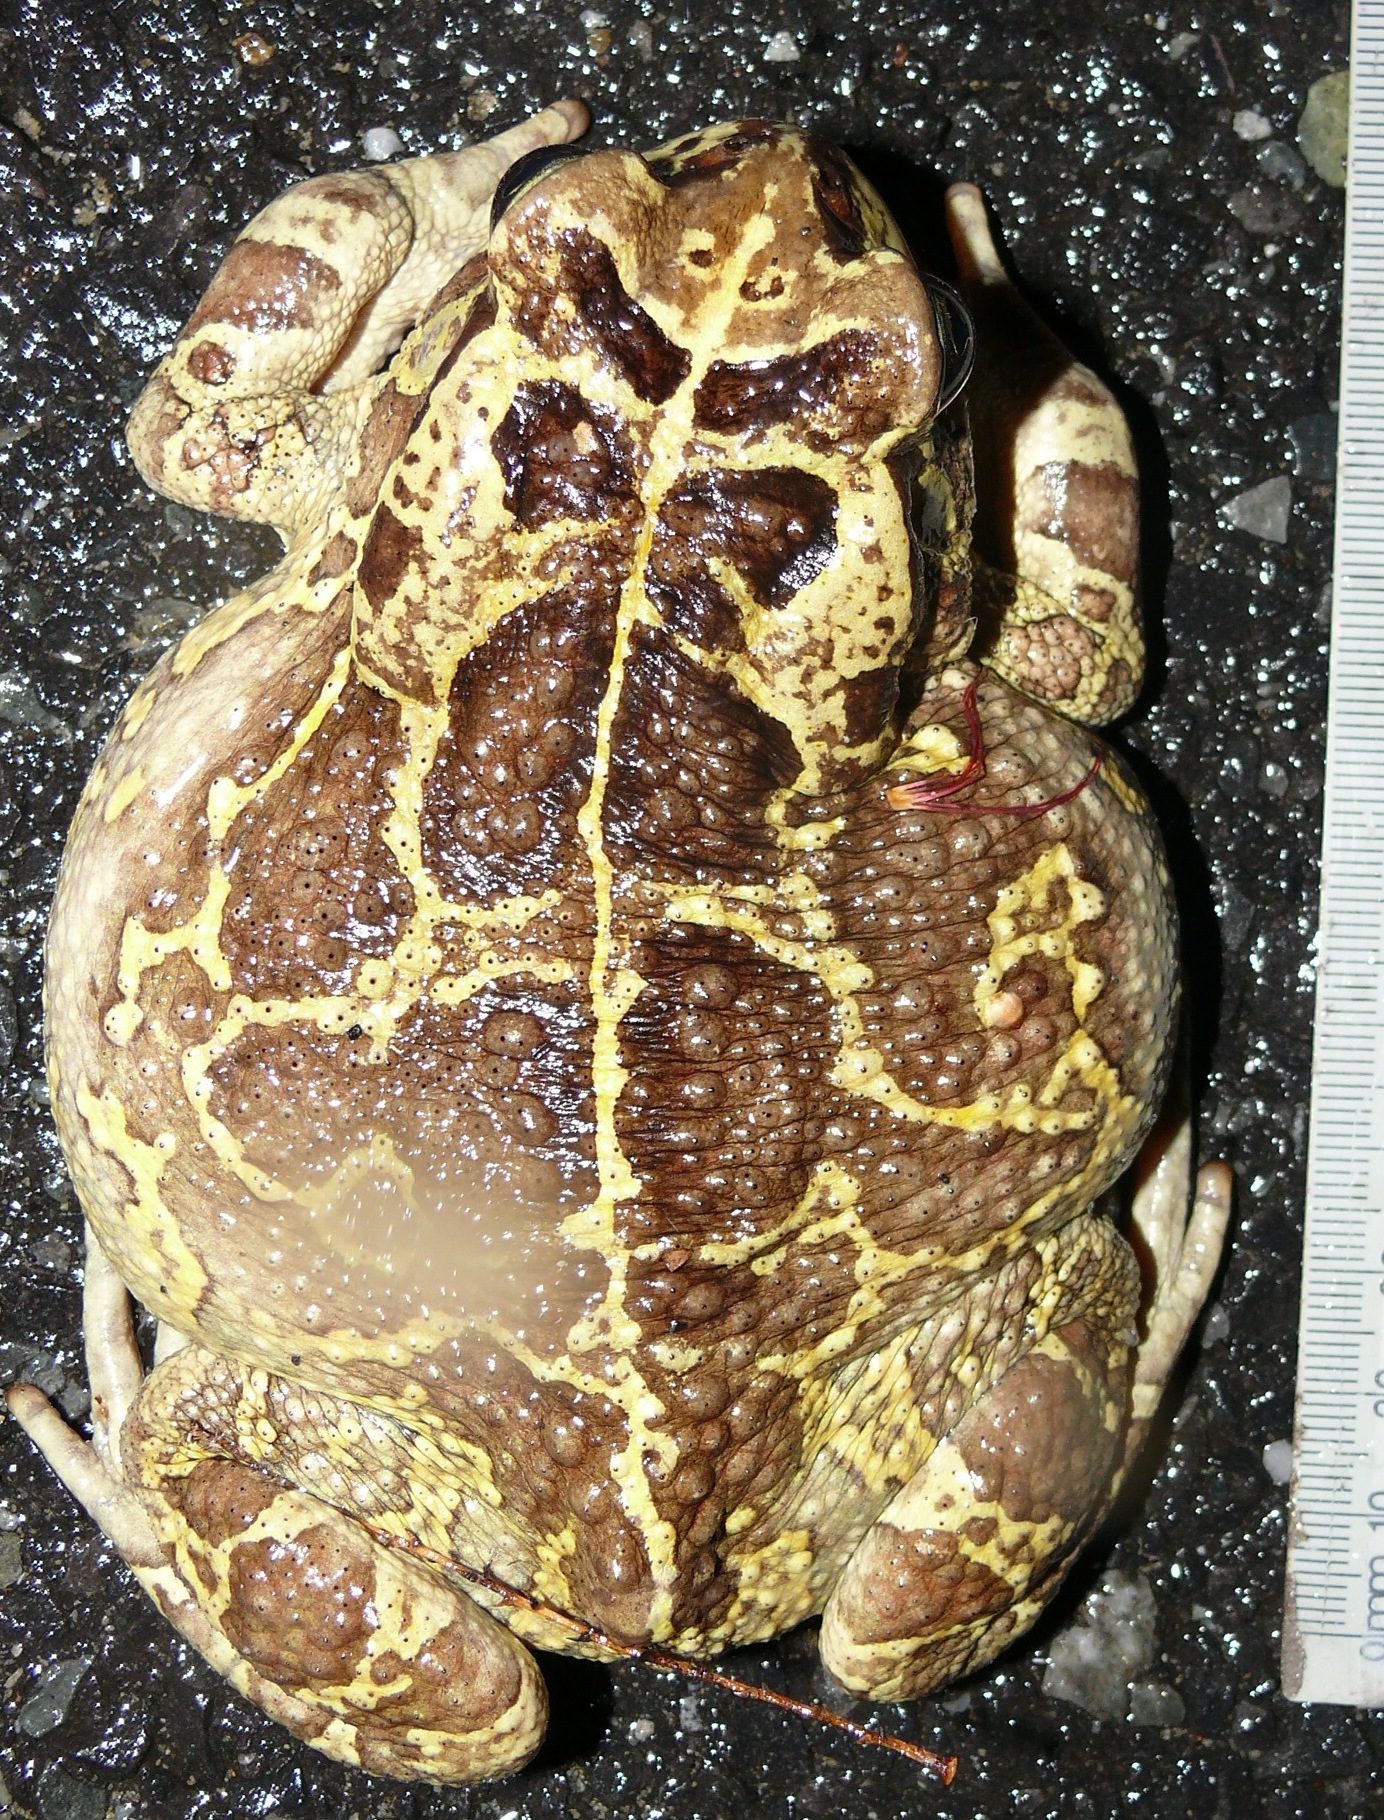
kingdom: Animalia
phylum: Chordata
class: Amphibia
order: Anura
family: Bufonidae
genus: Sclerophrys
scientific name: Sclerophrys pantherina
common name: Panther toad
